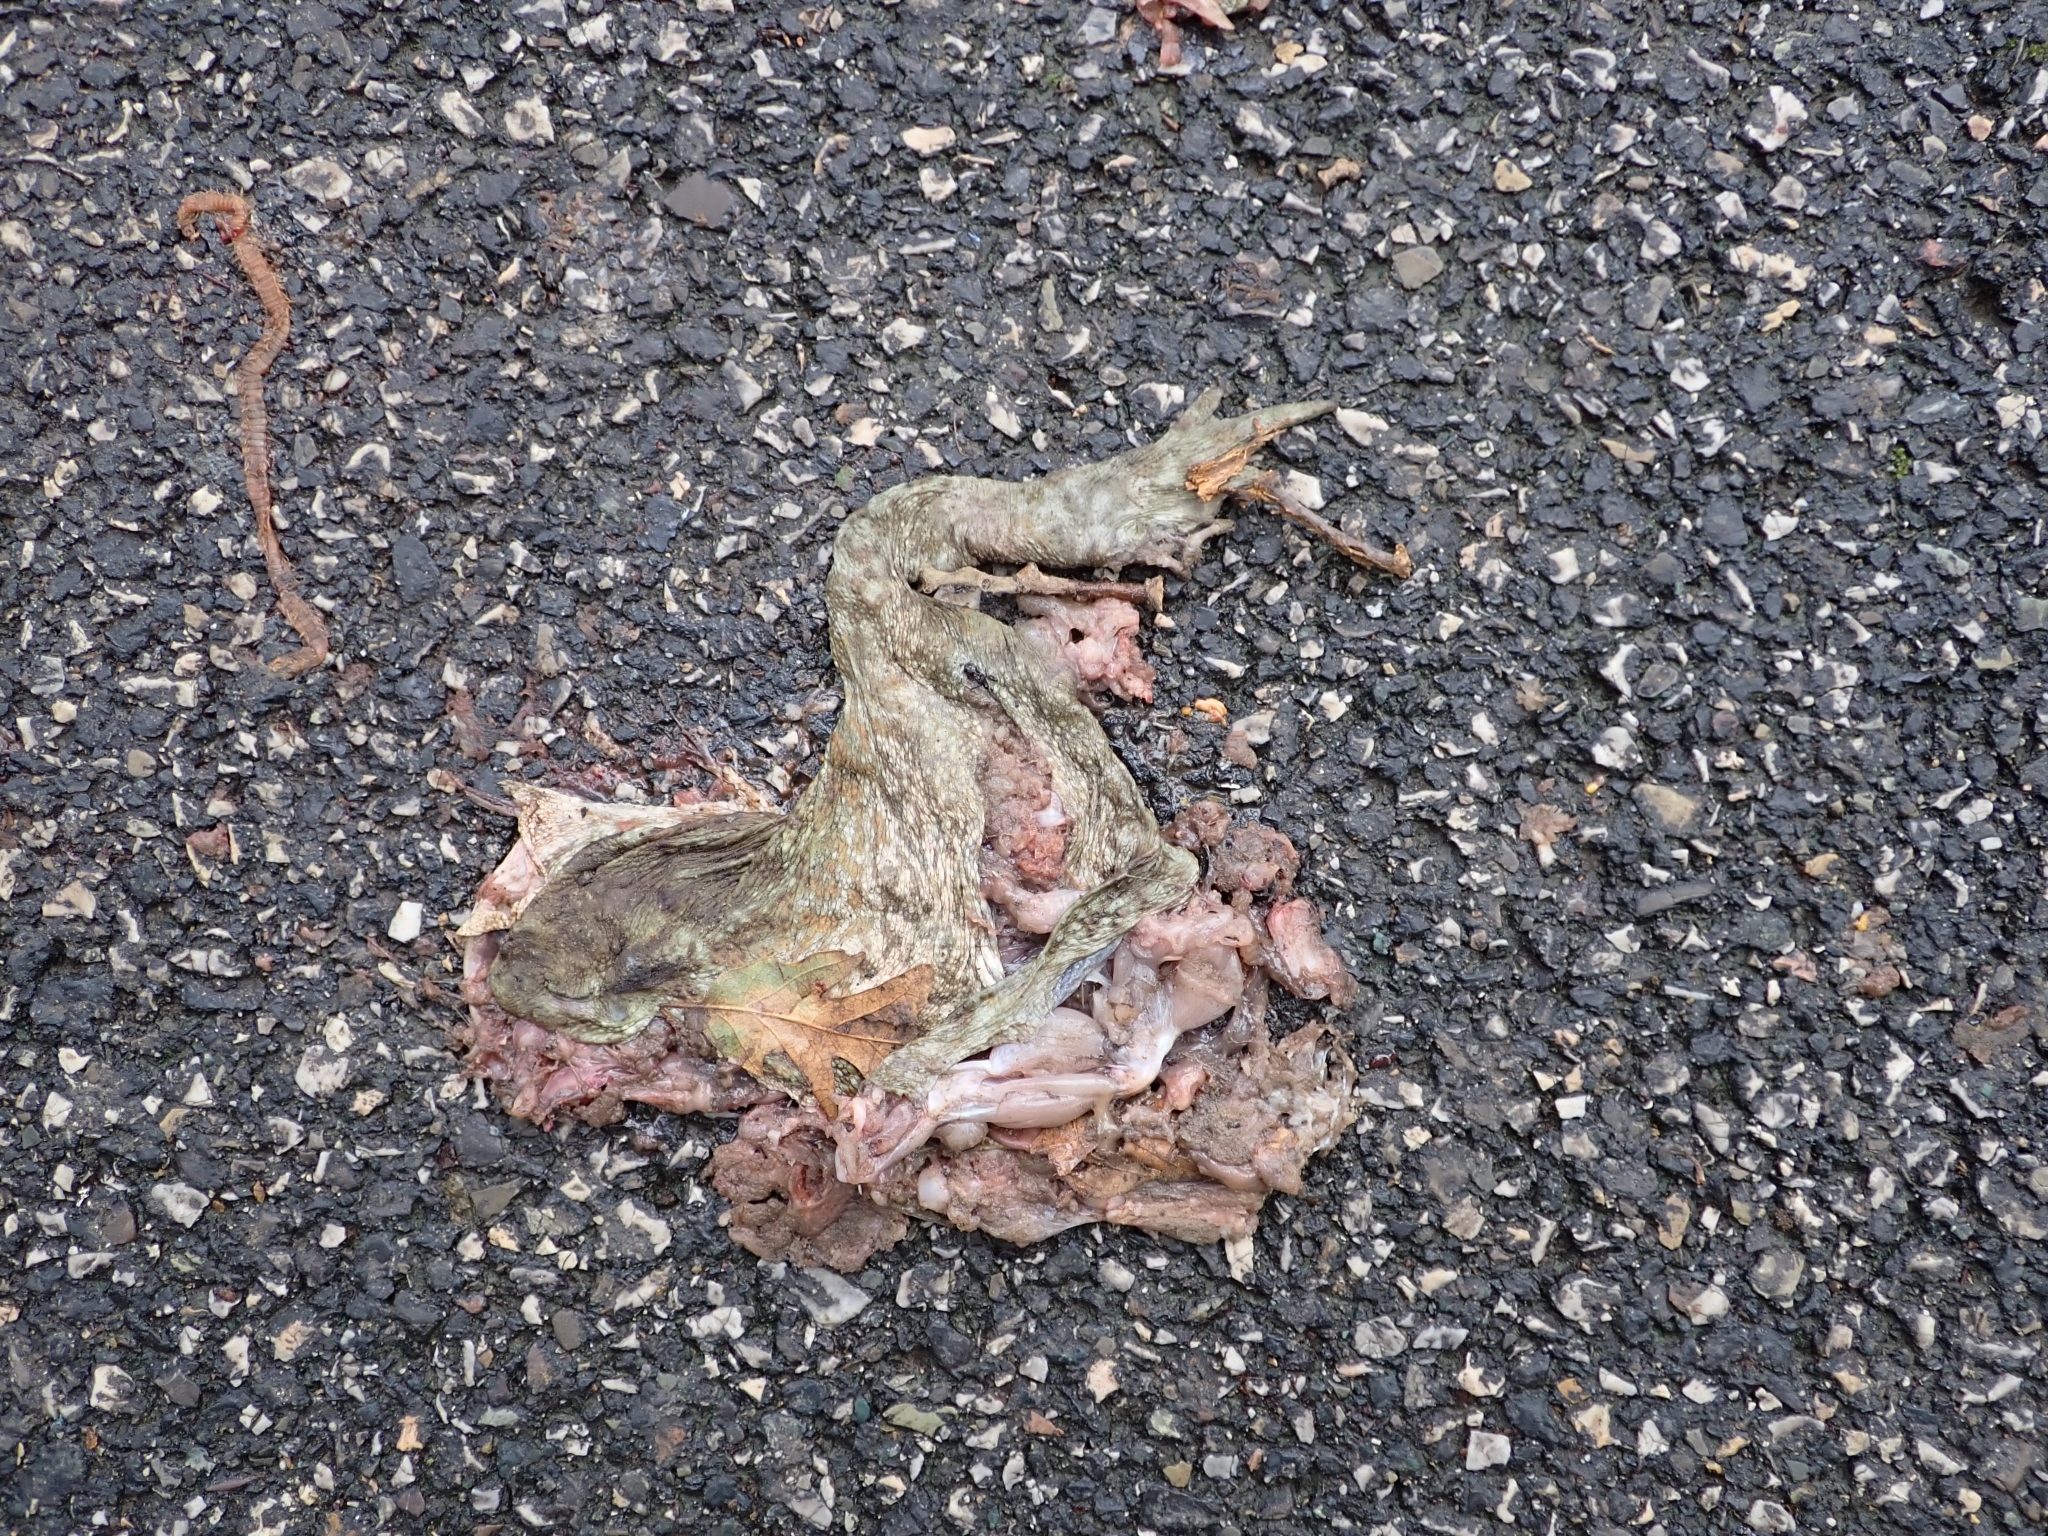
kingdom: Animalia
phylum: Chordata
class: Amphibia
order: Anura
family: Bufonidae
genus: Bufo
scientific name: Bufo bufo
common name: Common toad
